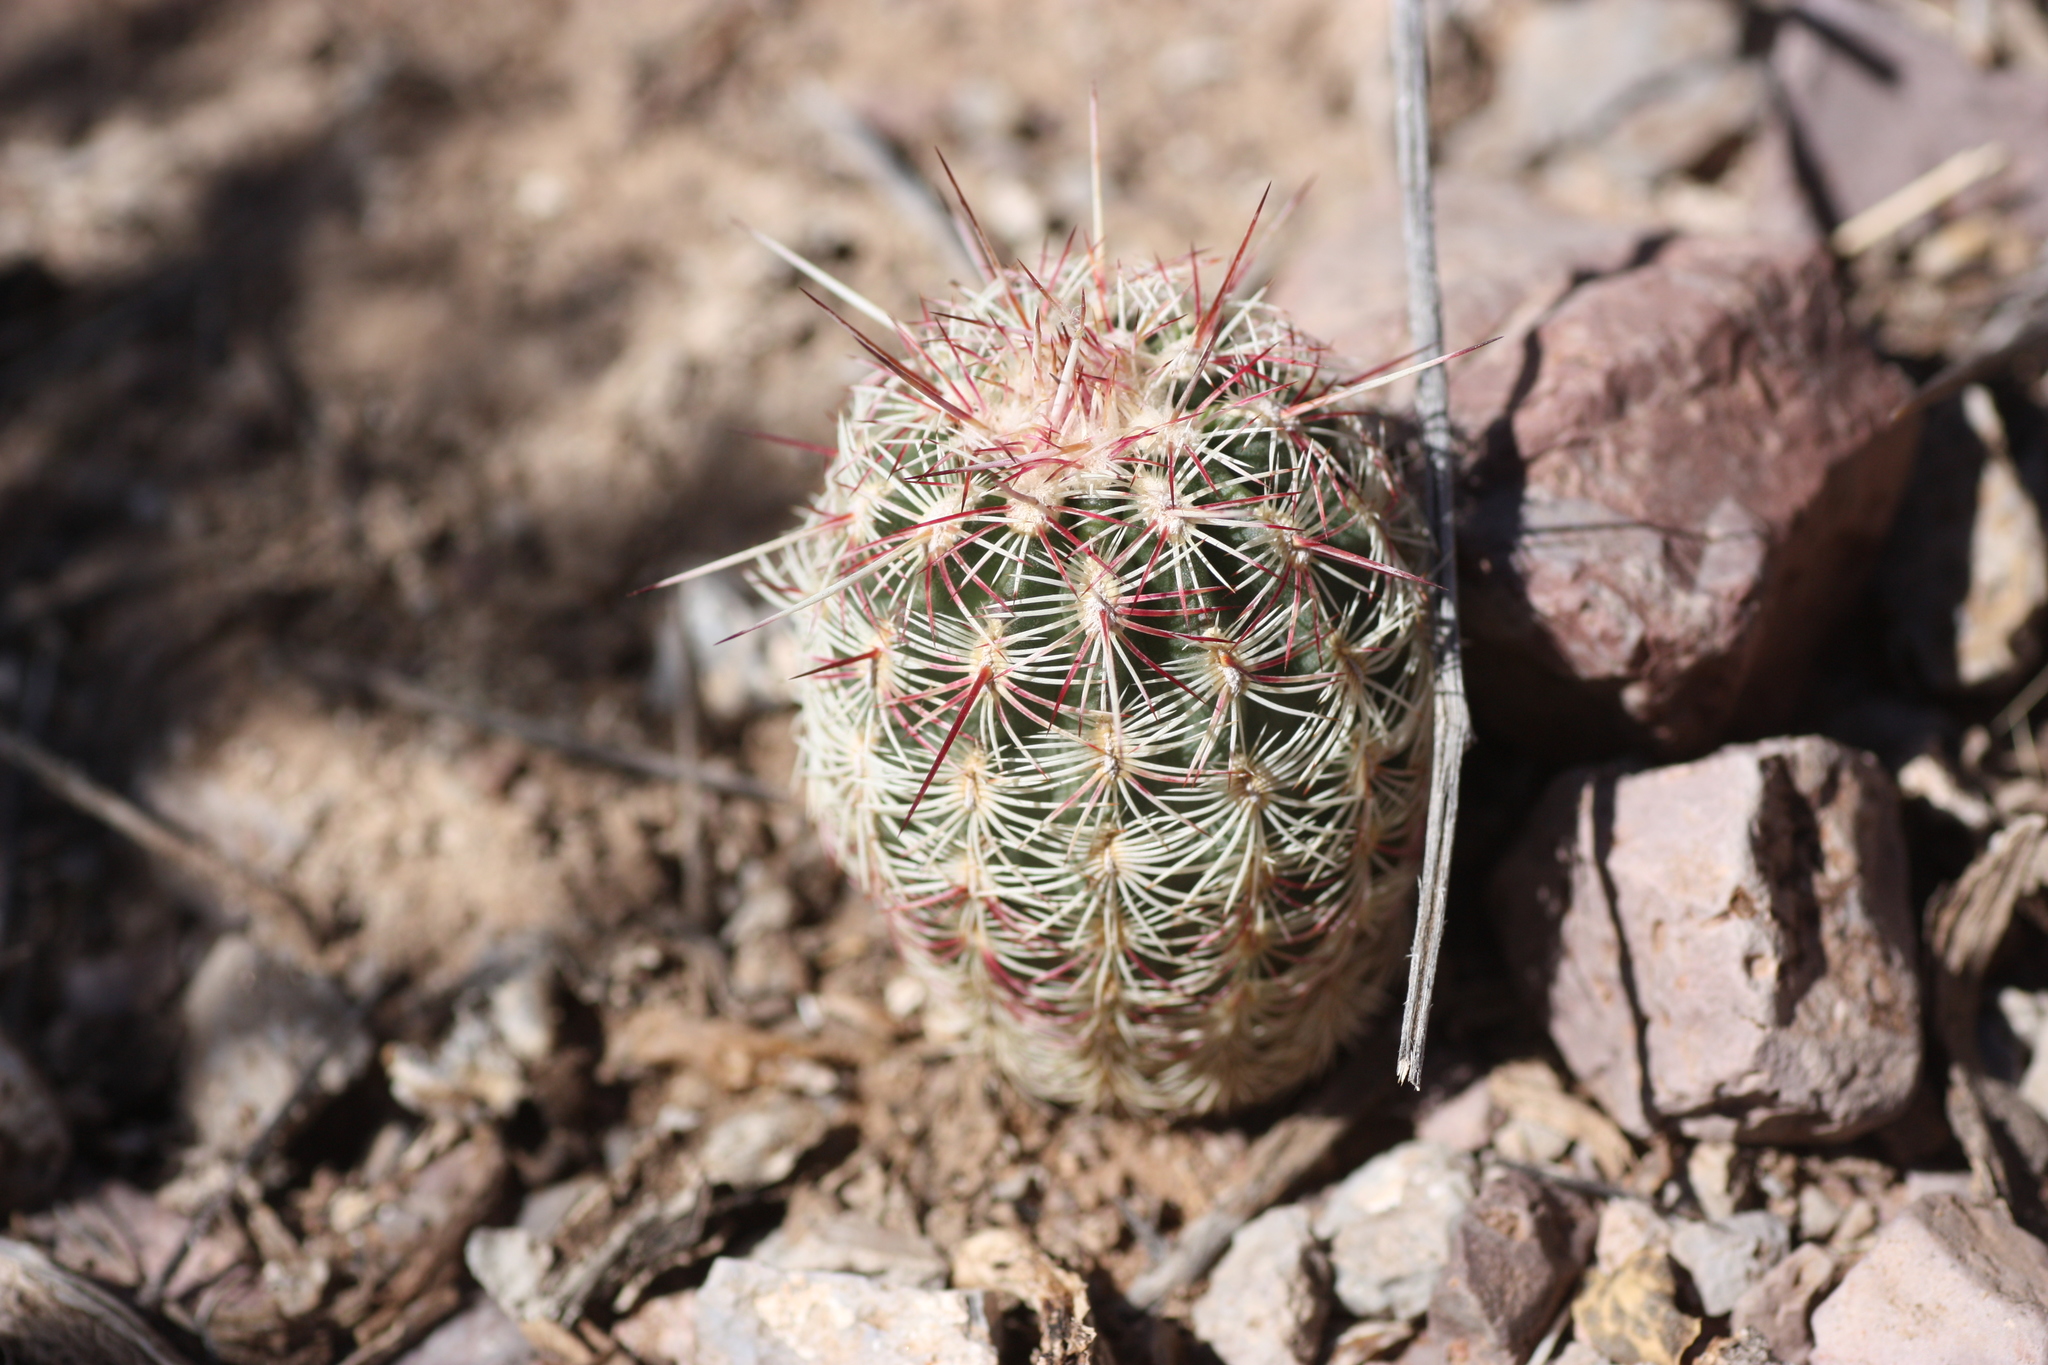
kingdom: Plantae
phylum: Tracheophyta
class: Magnoliopsida
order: Caryophyllales
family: Cactaceae
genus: Echinocereus
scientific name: Echinocereus viridiflorus
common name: Nylon hedgehog cactus
